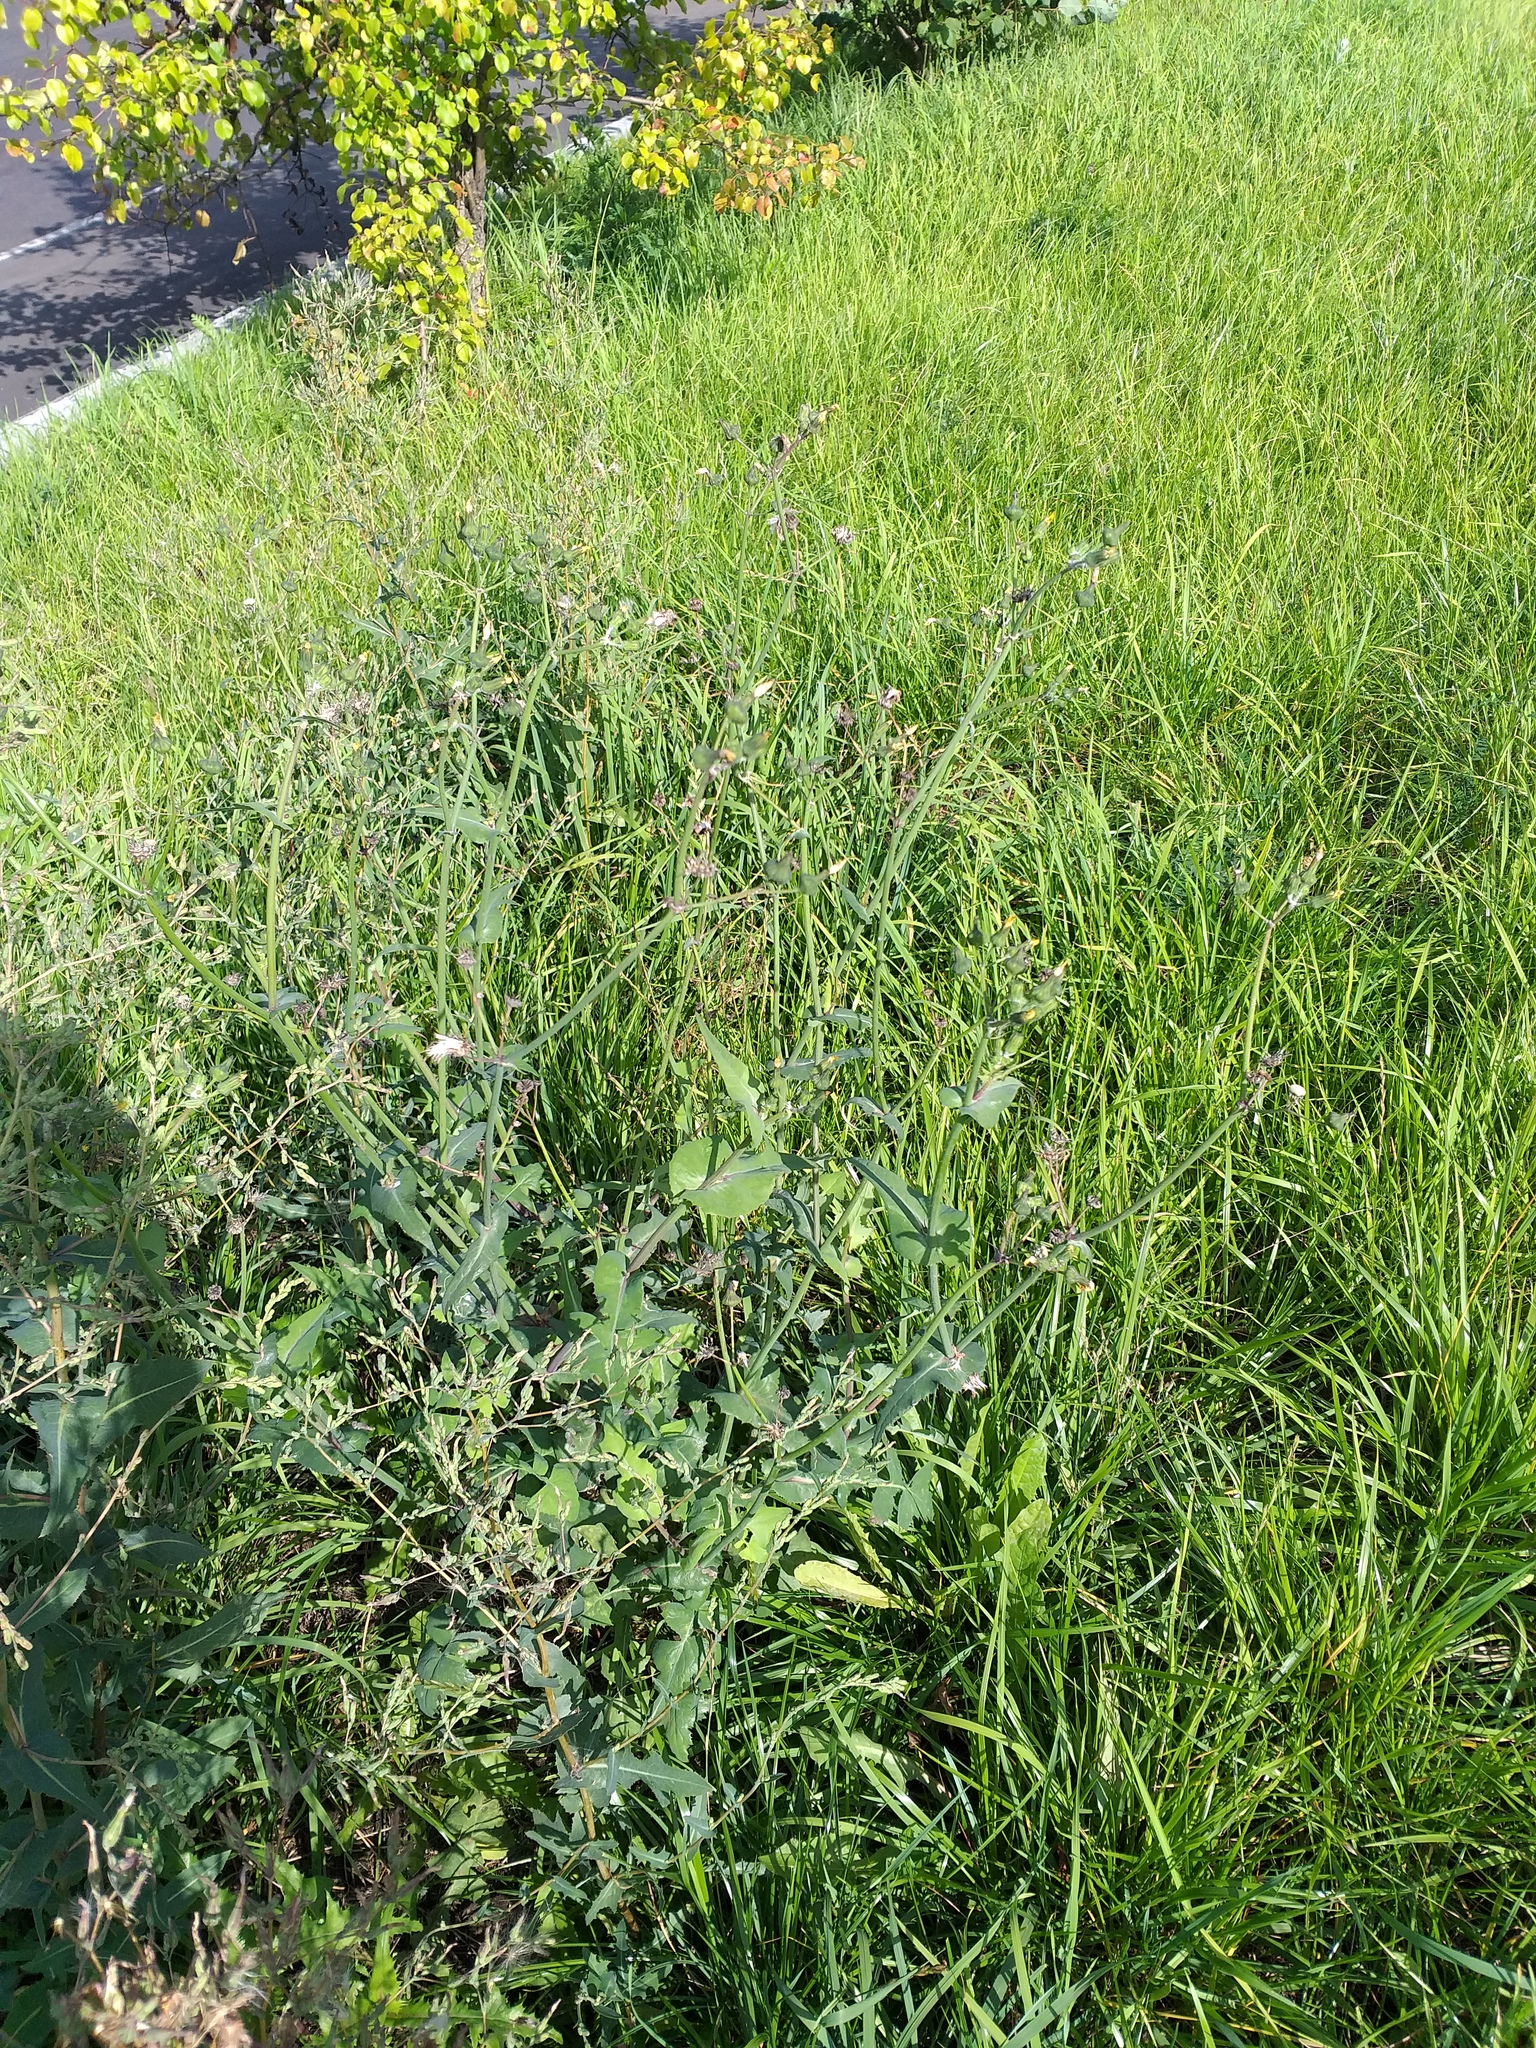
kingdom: Plantae
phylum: Tracheophyta
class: Magnoliopsida
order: Asterales
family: Asteraceae
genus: Sonchus
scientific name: Sonchus oleraceus
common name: Common sowthistle
